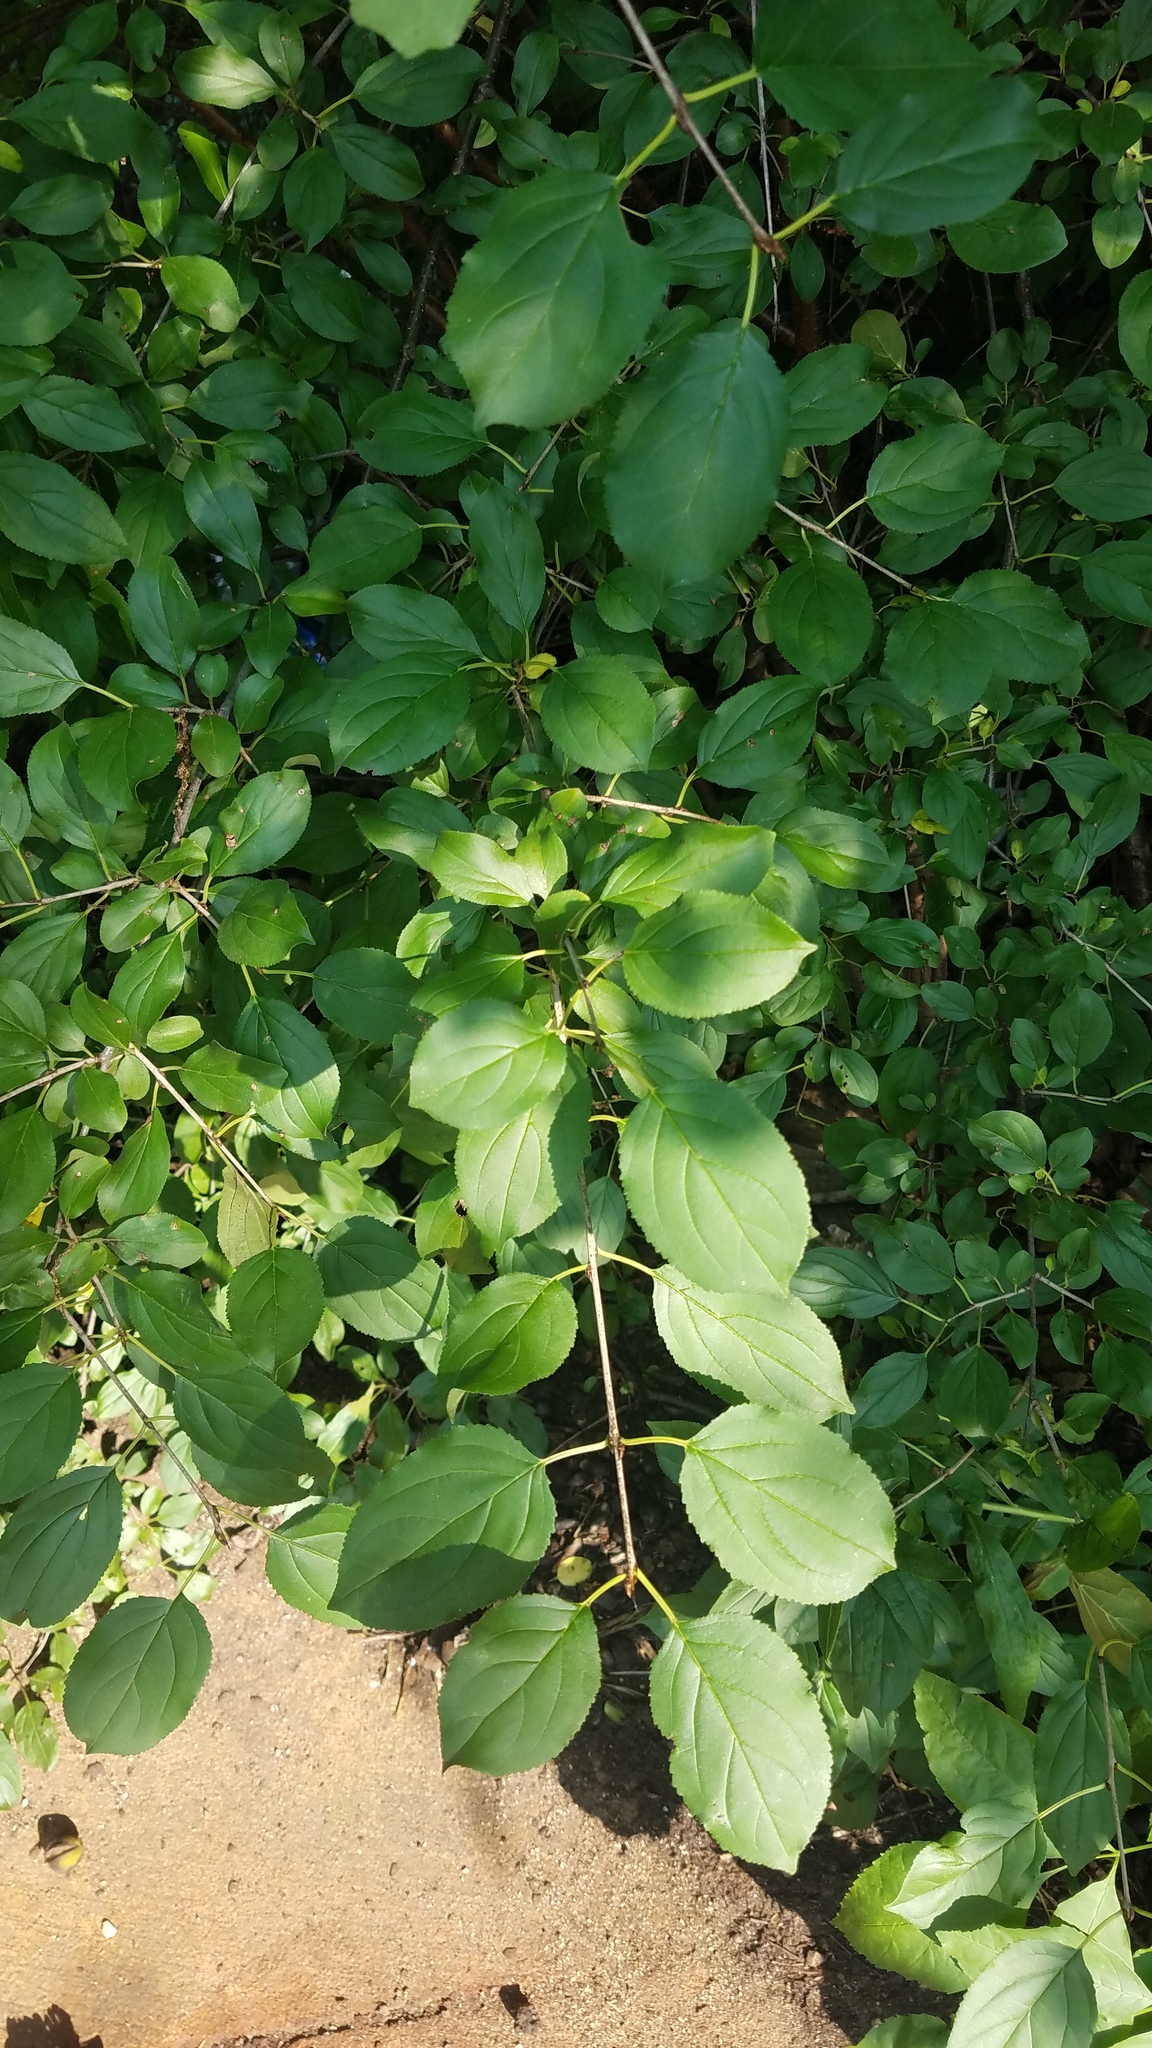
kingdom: Plantae
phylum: Tracheophyta
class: Magnoliopsida
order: Rosales
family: Rhamnaceae
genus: Rhamnus
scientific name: Rhamnus cathartica
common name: Common buckthorn
